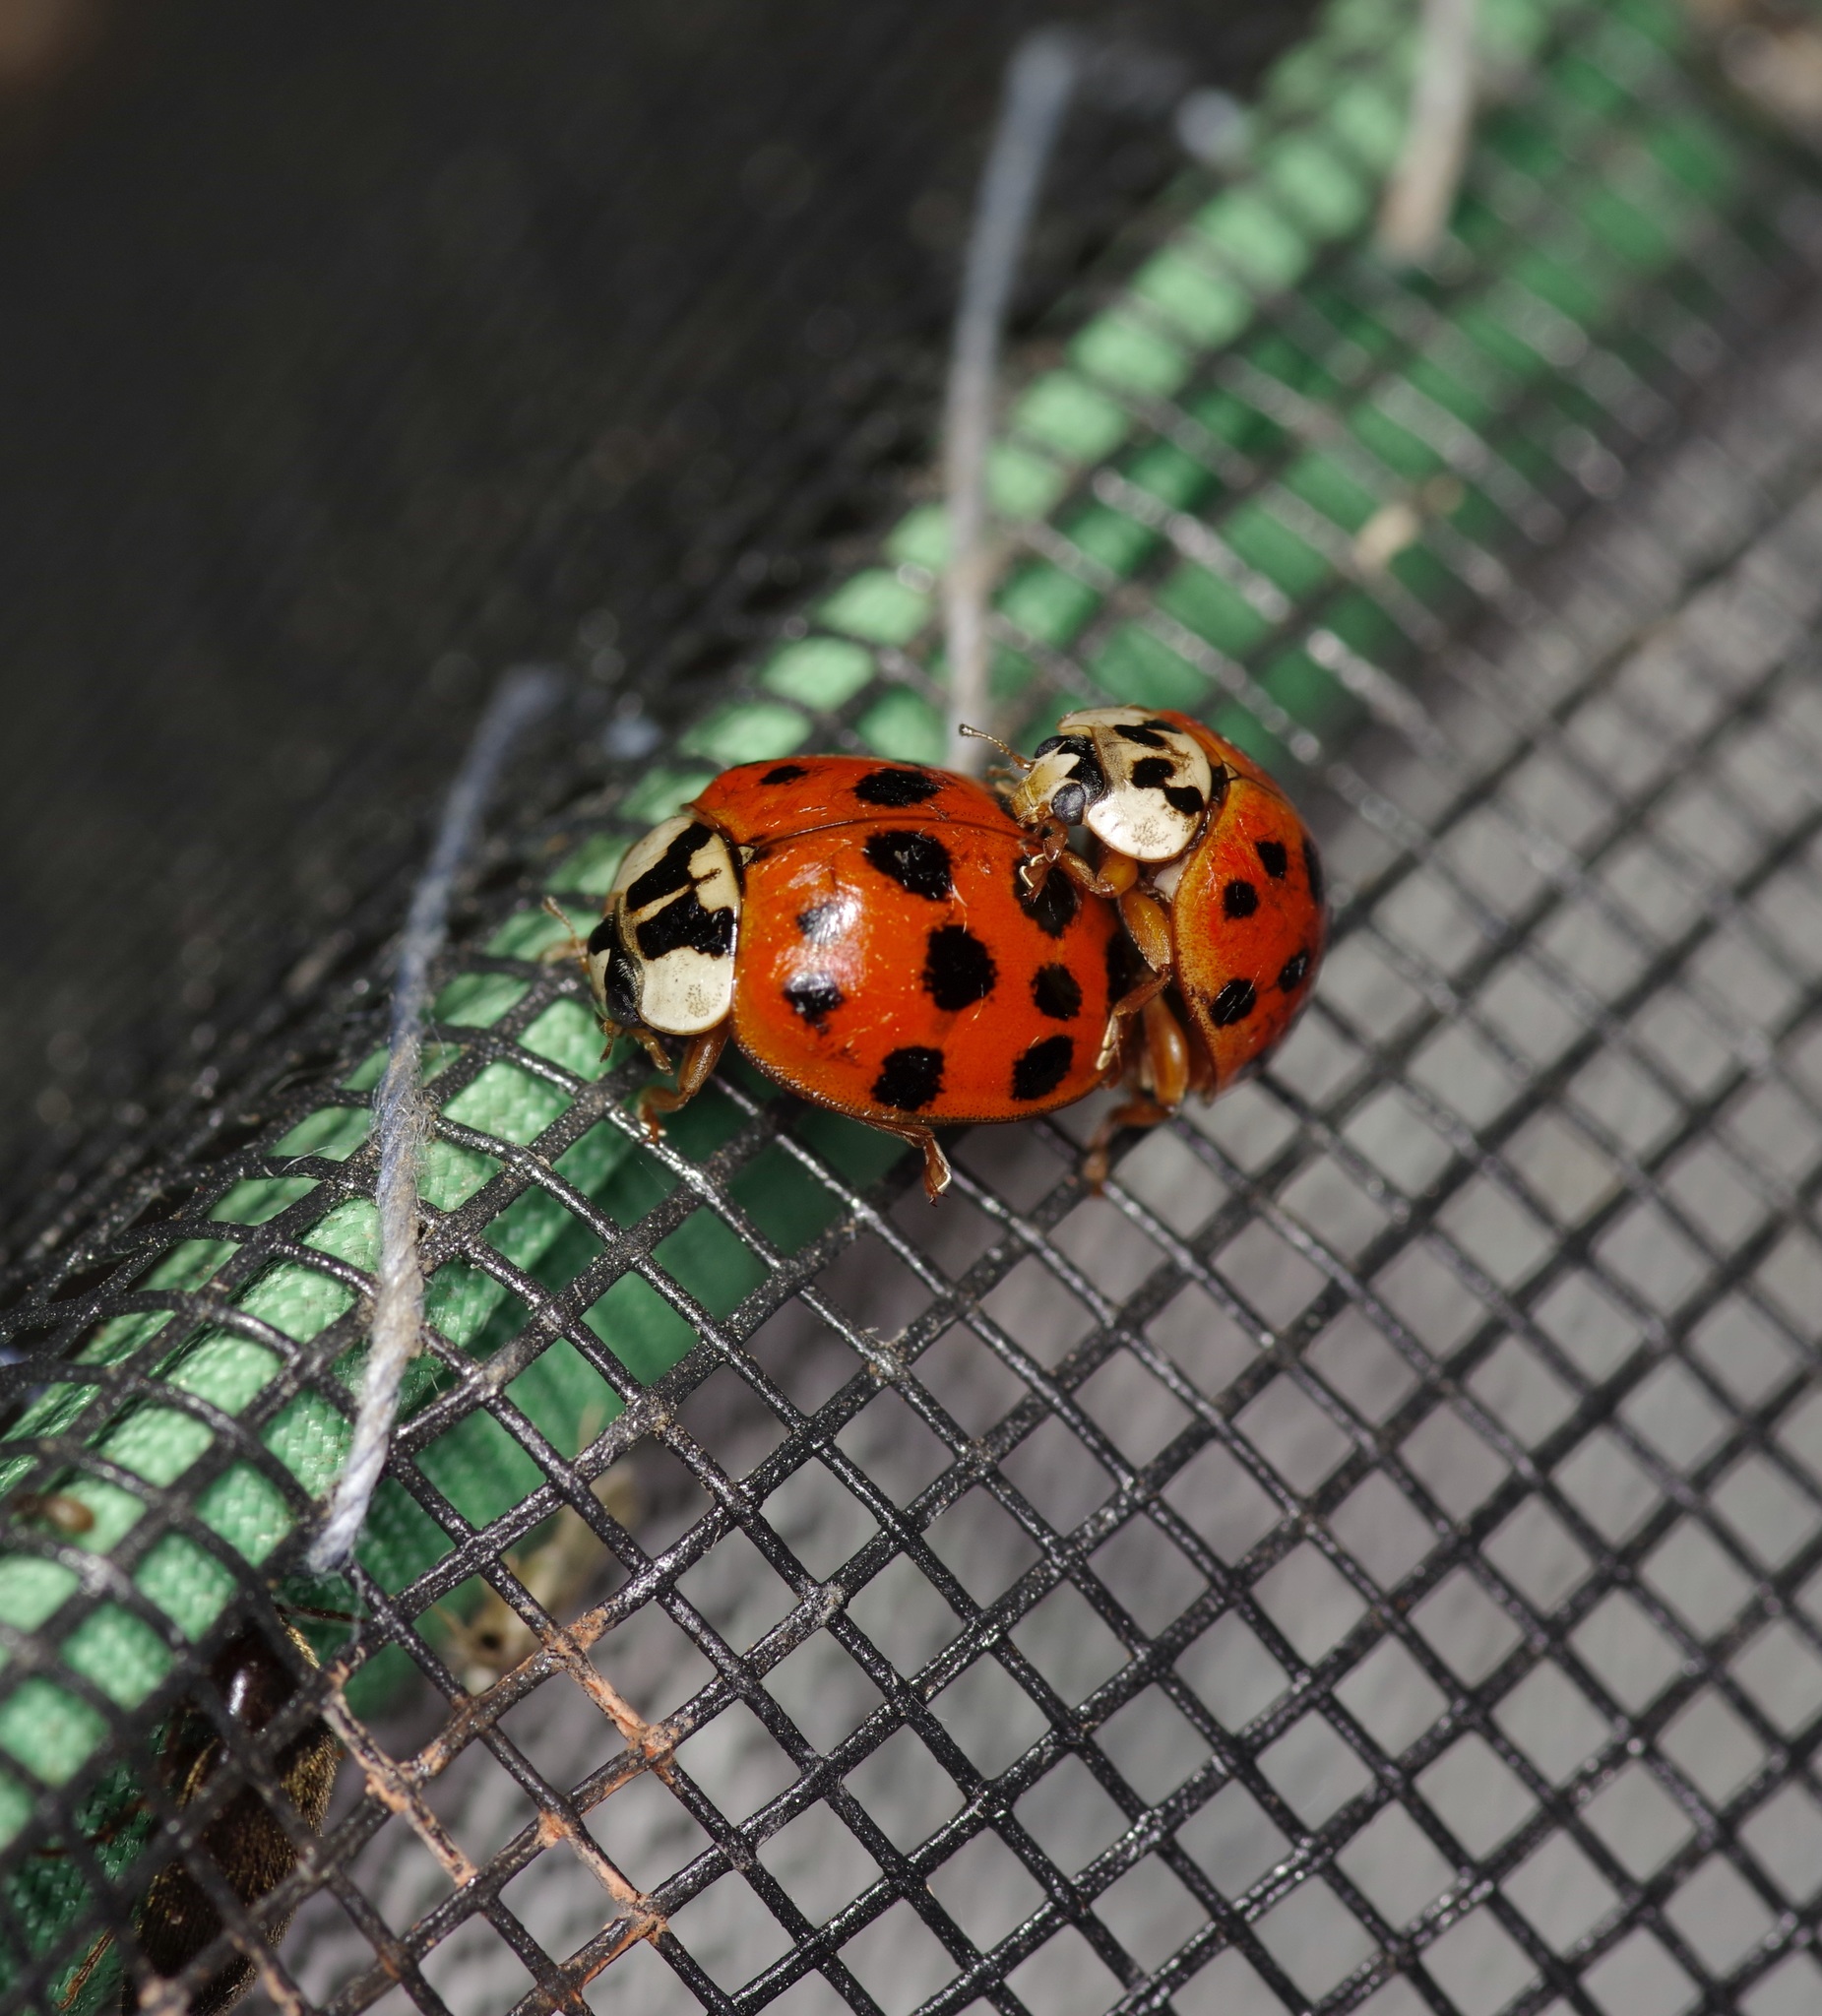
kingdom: Animalia
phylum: Arthropoda
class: Insecta
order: Coleoptera
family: Coccinellidae
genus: Harmonia
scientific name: Harmonia axyridis
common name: Harlequin ladybird
